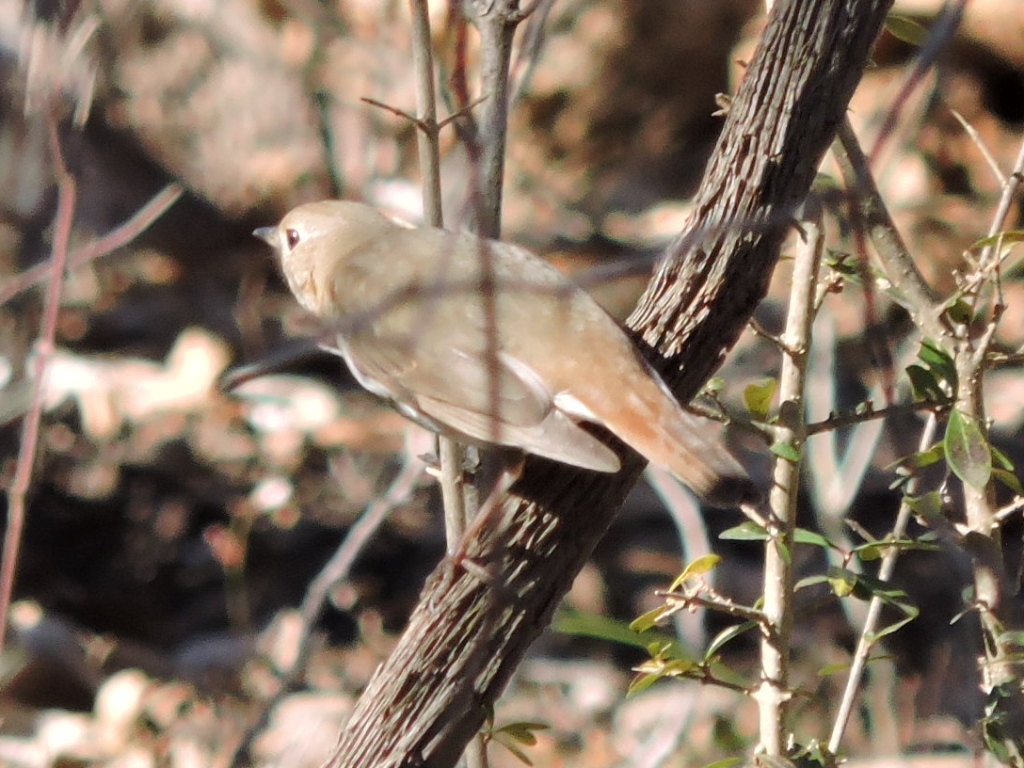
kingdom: Animalia
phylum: Chordata
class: Aves
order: Passeriformes
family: Turdidae
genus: Catharus
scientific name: Catharus guttatus
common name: Hermit thrush
